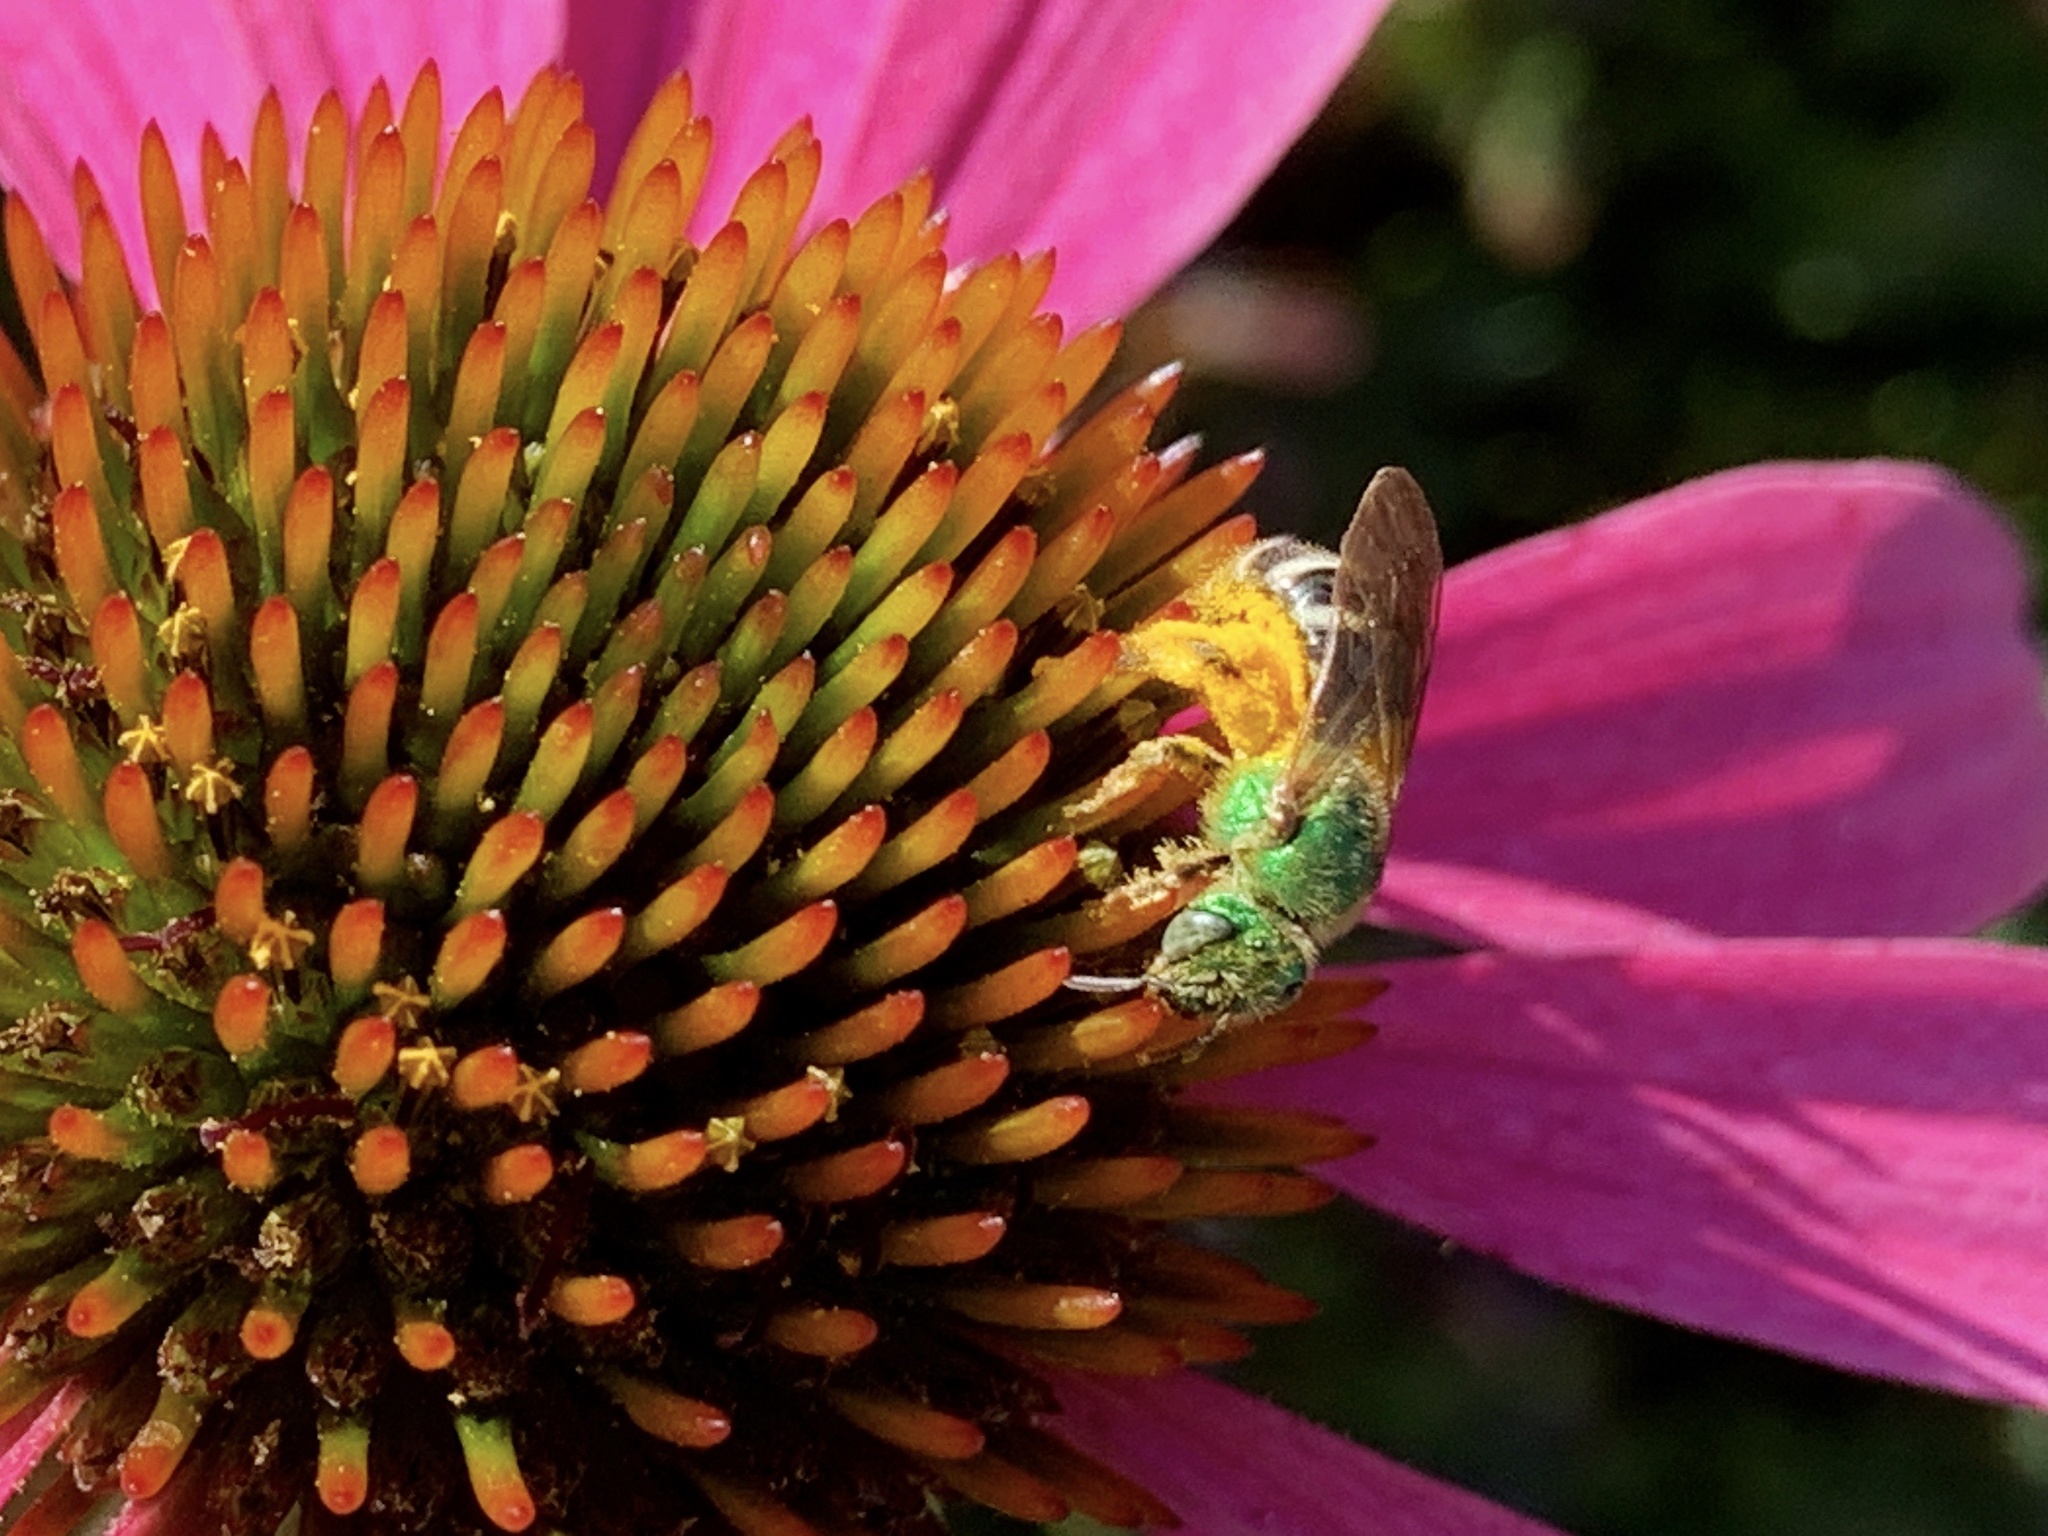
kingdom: Animalia
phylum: Arthropoda
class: Insecta
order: Hymenoptera
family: Halictidae
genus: Agapostemon
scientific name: Agapostemon virescens
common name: Bicolored striped sweat bee
